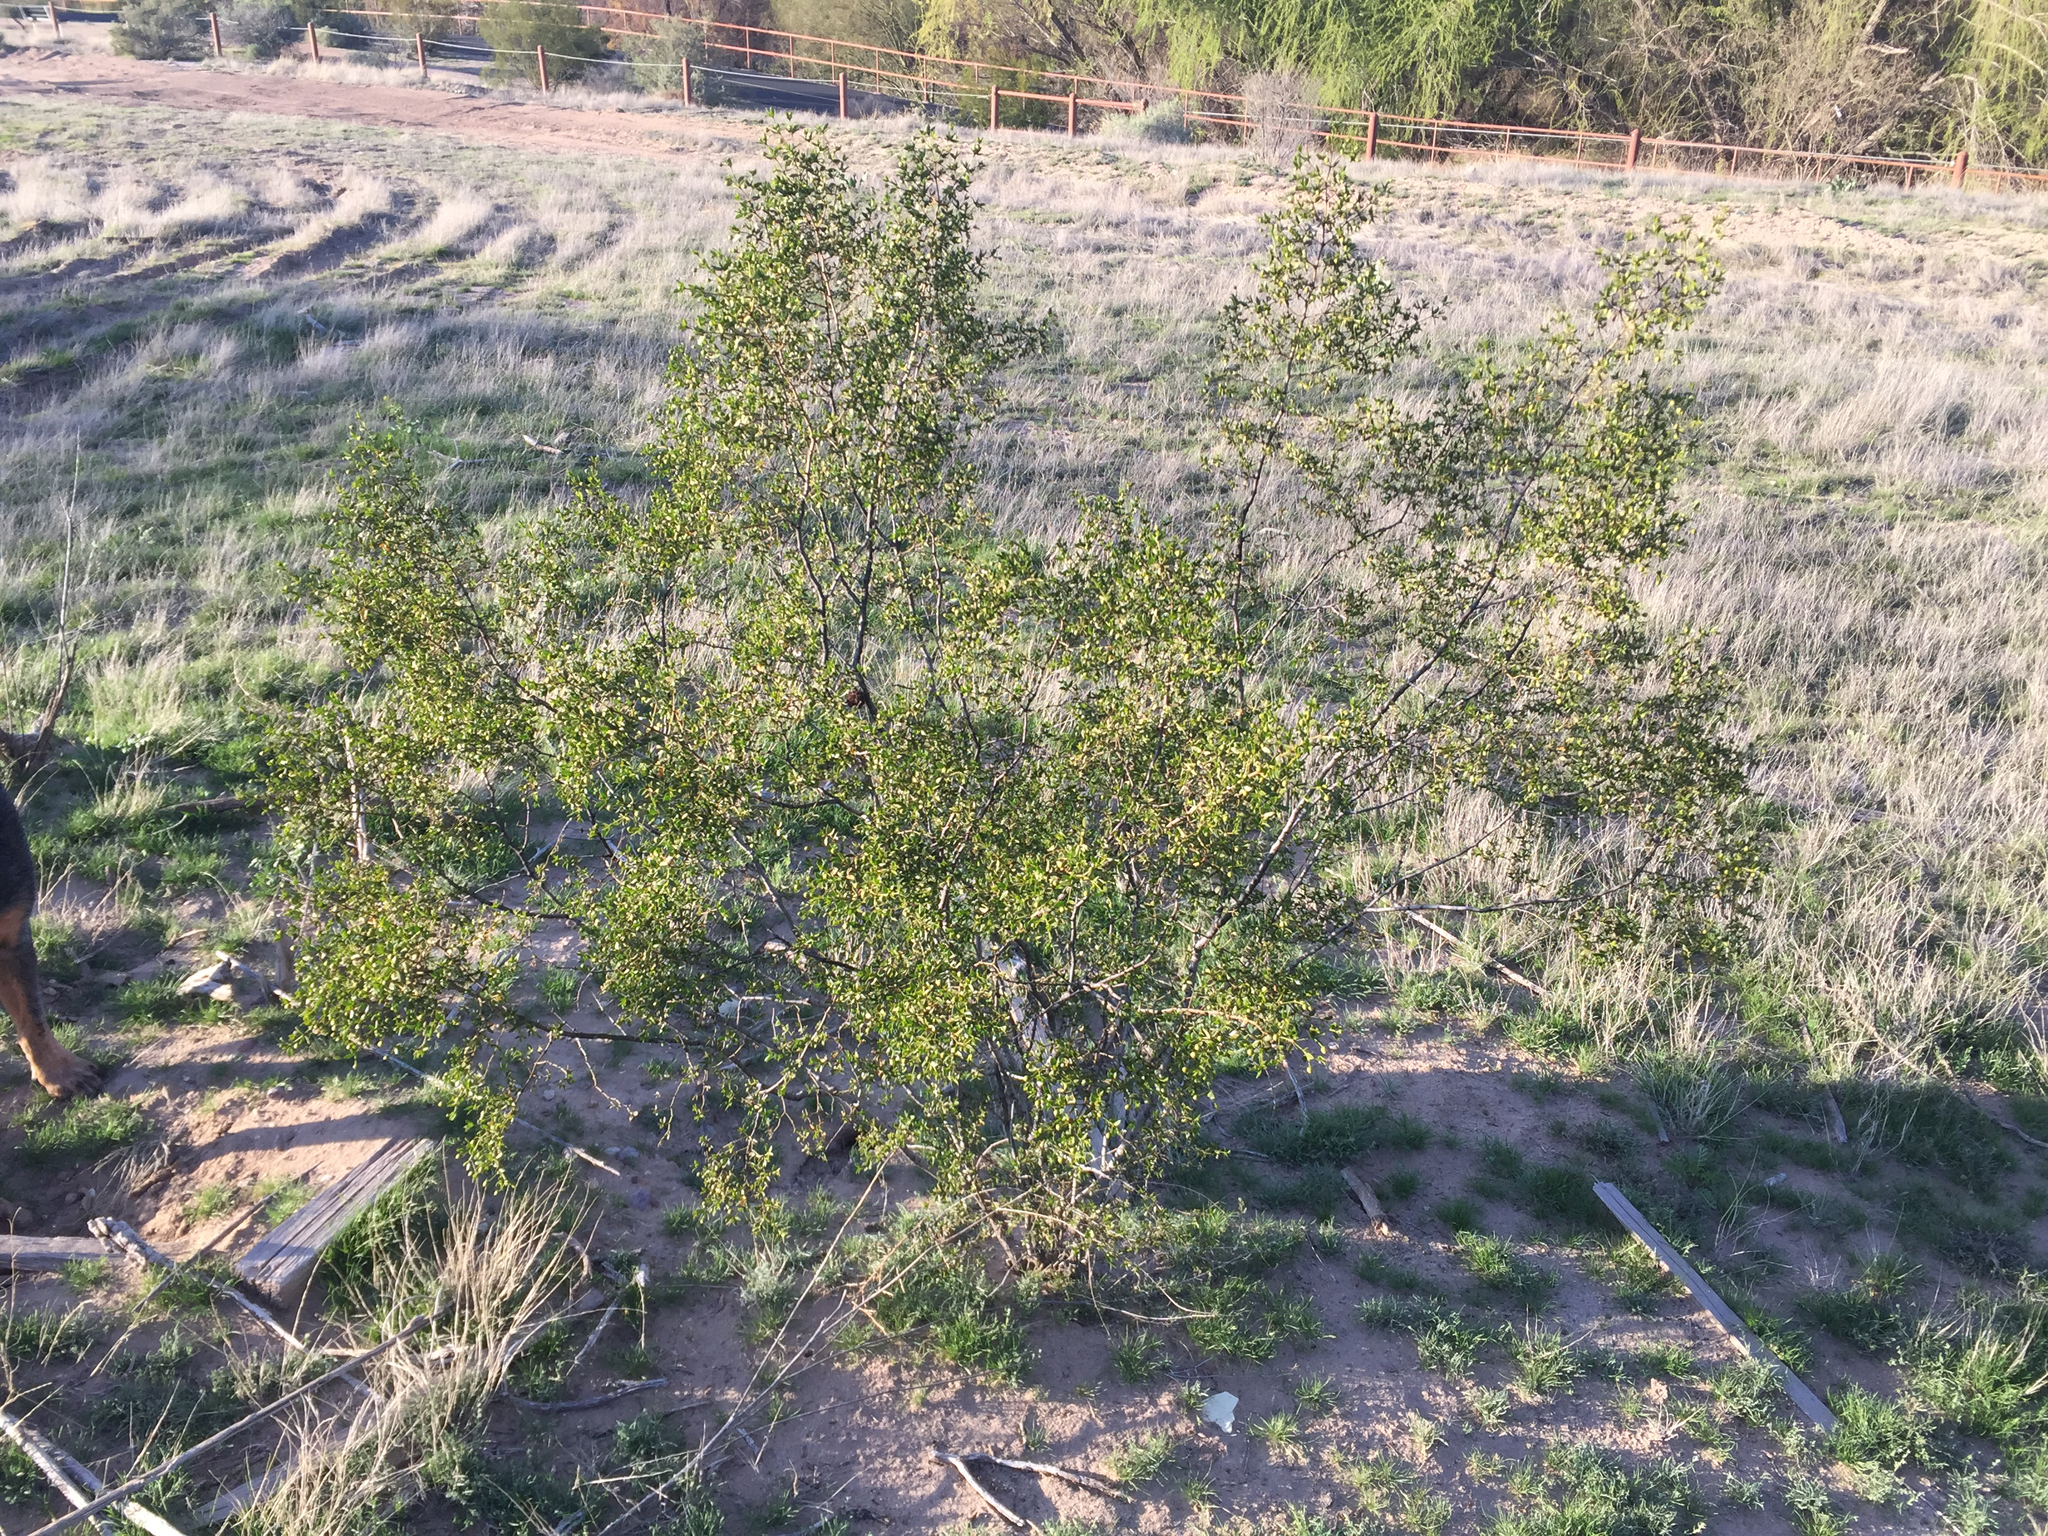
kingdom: Plantae
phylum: Tracheophyta
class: Magnoliopsida
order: Zygophyllales
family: Zygophyllaceae
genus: Larrea
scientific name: Larrea tridentata
